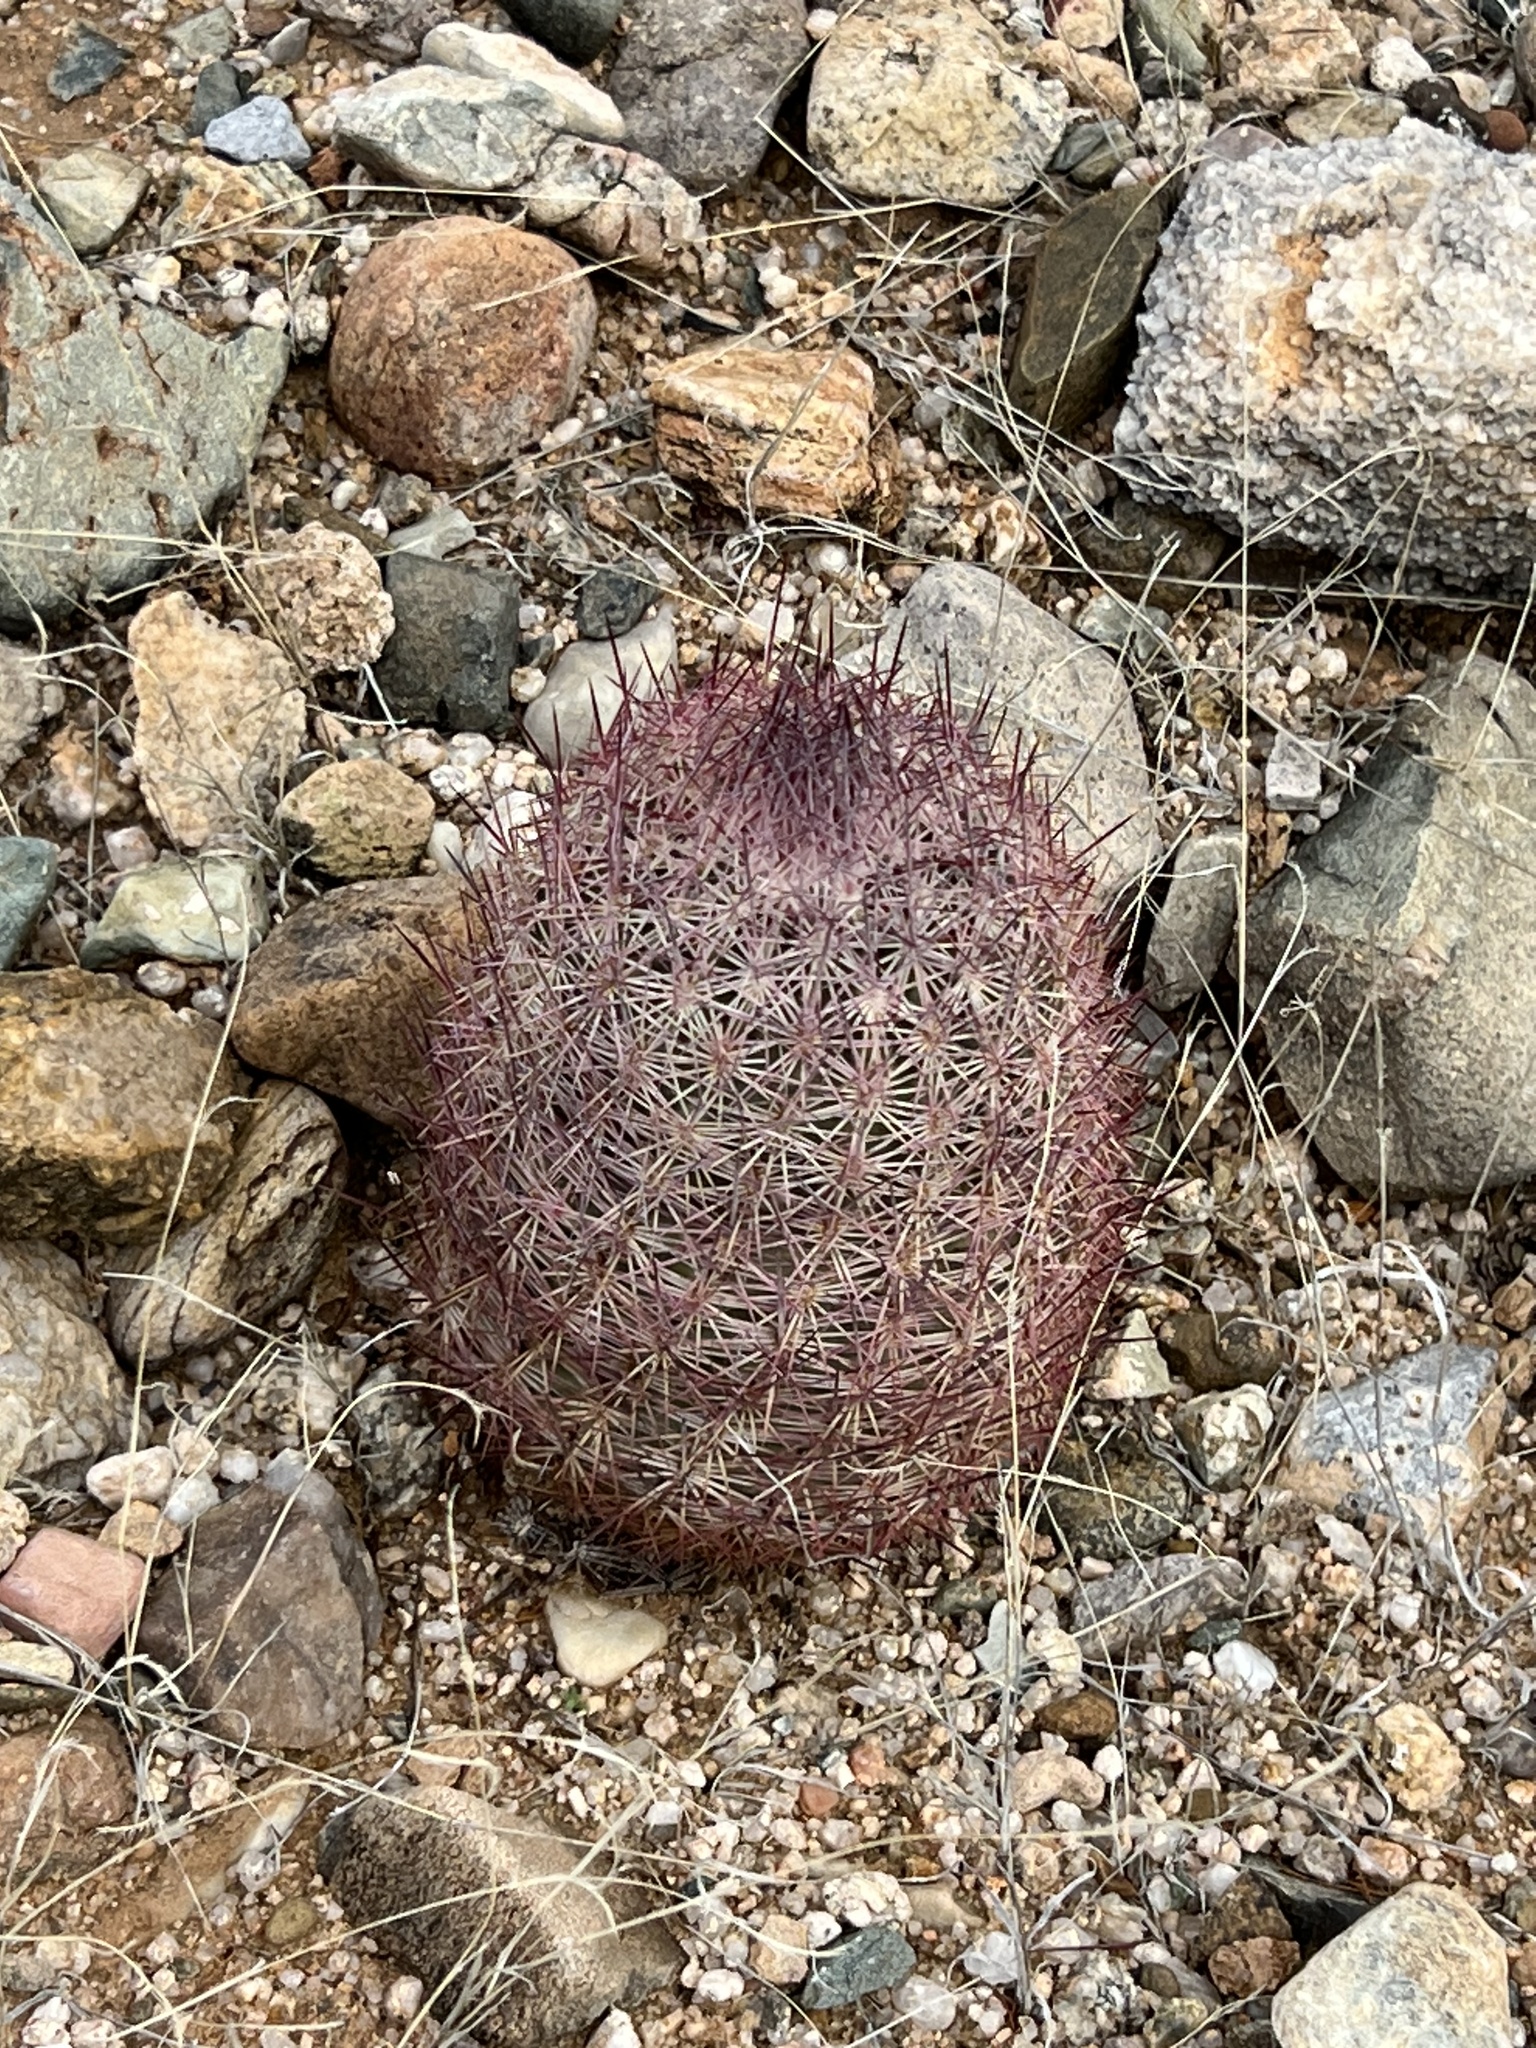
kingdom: Plantae
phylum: Tracheophyta
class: Magnoliopsida
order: Caryophyllales
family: Cactaceae
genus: Sclerocactus
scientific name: Sclerocactus johnsonii
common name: Eight-spine fishhook cactus
